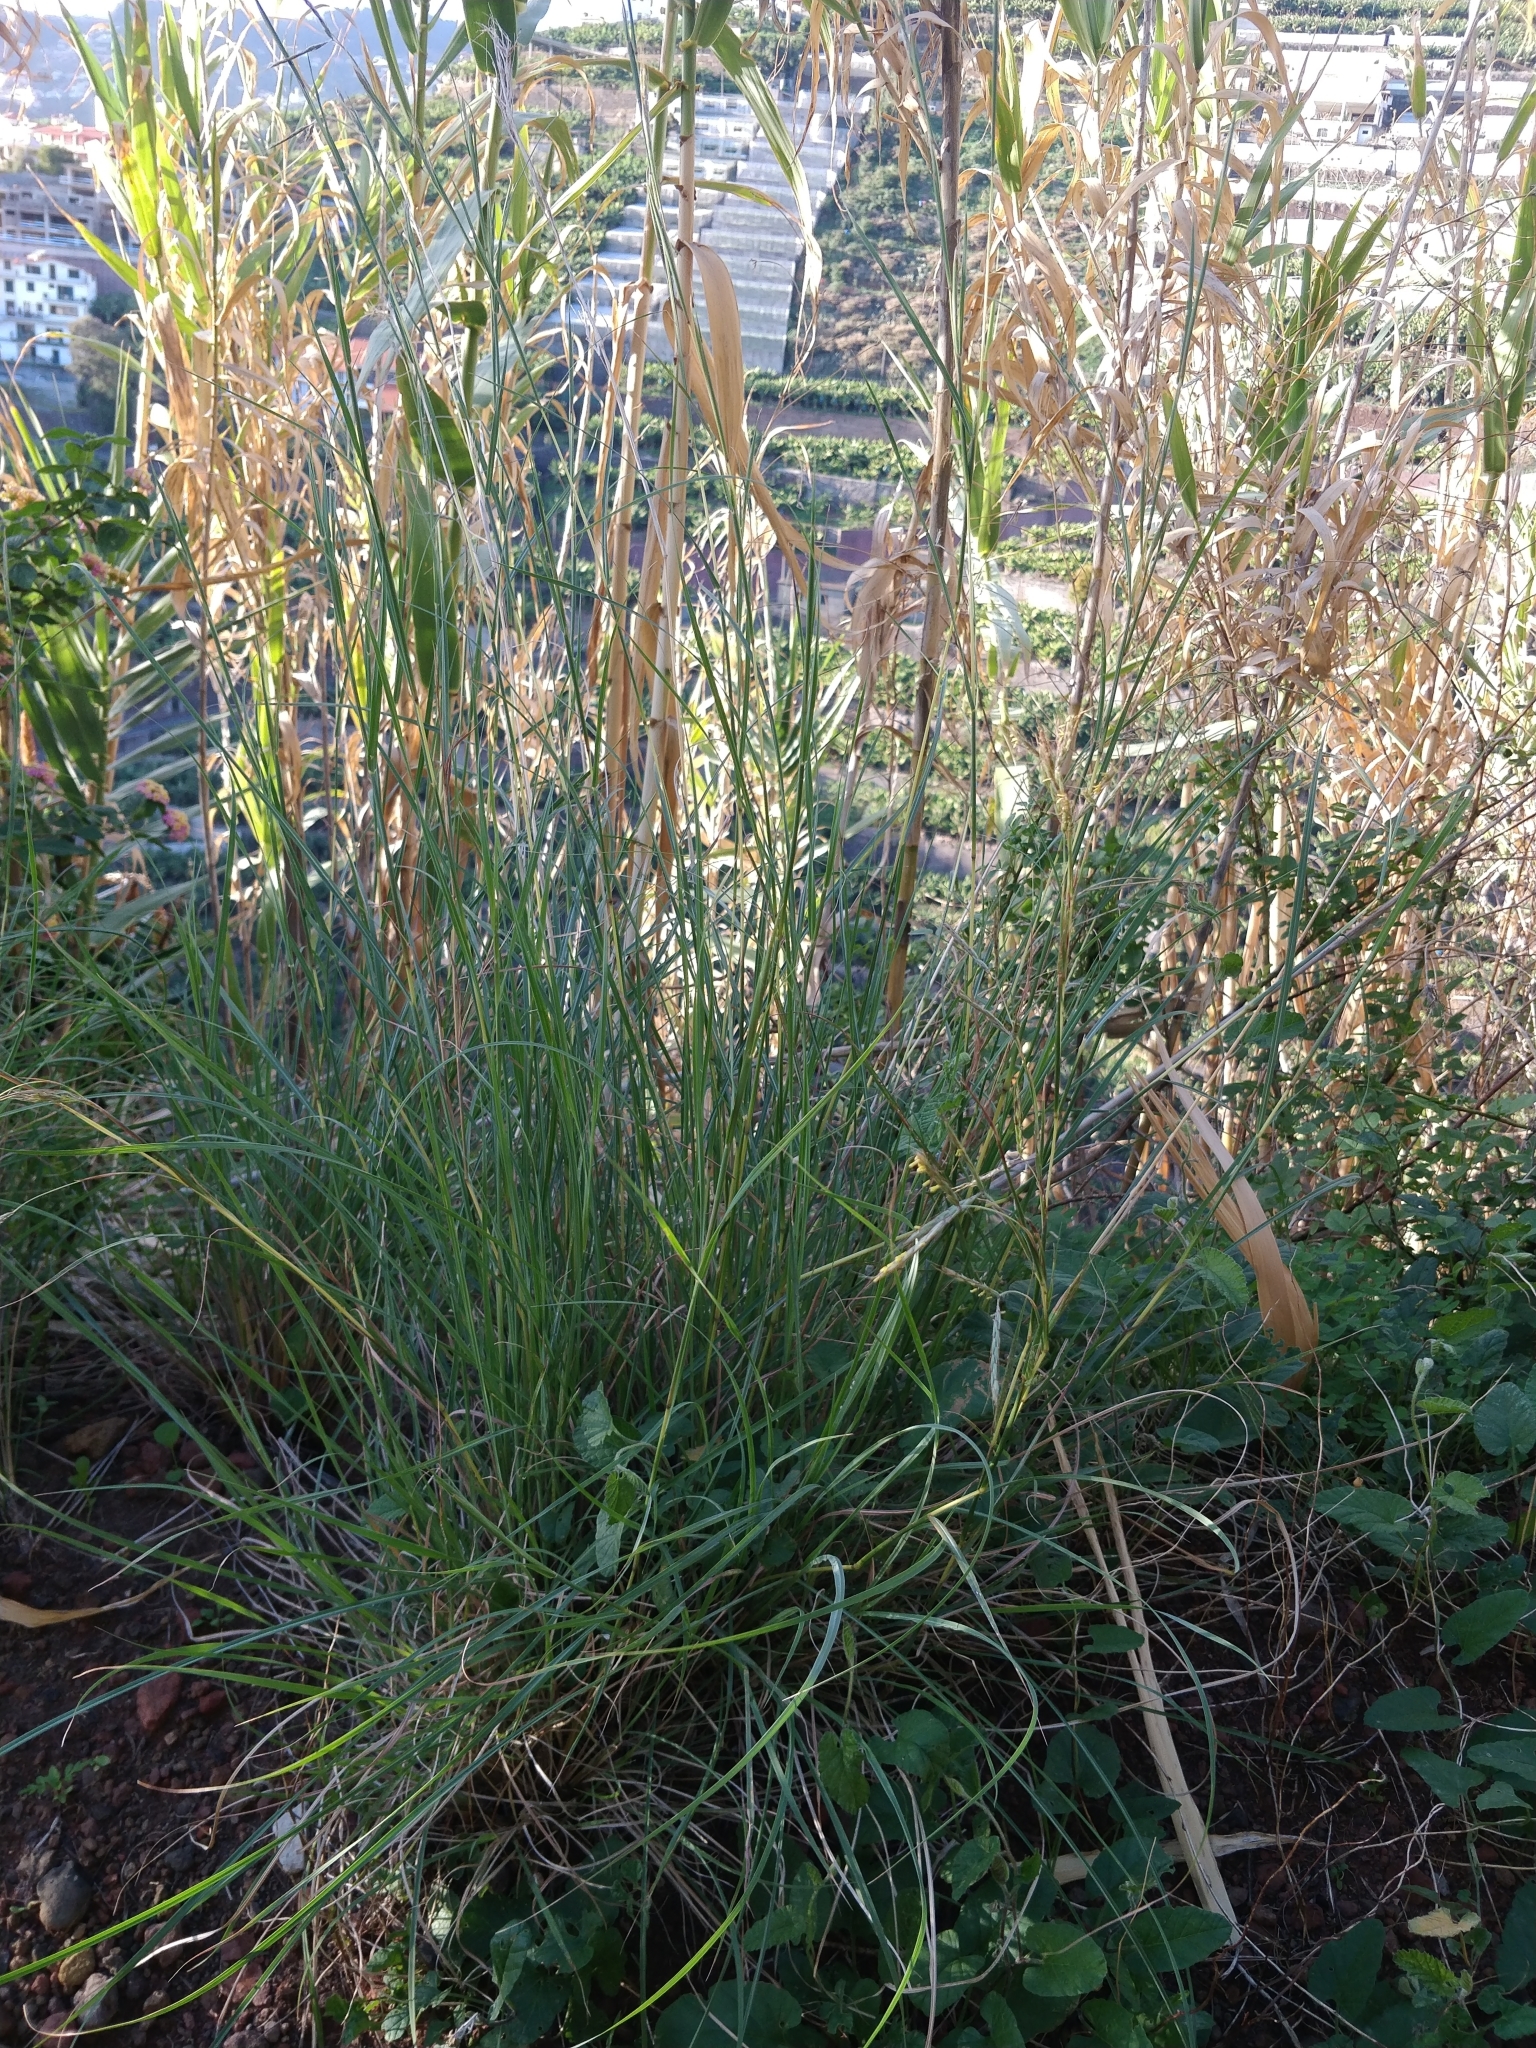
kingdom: Plantae
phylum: Tracheophyta
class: Liliopsida
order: Poales
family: Poaceae
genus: Hyparrhenia
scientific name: Hyparrhenia hirta
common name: Thatching grass
